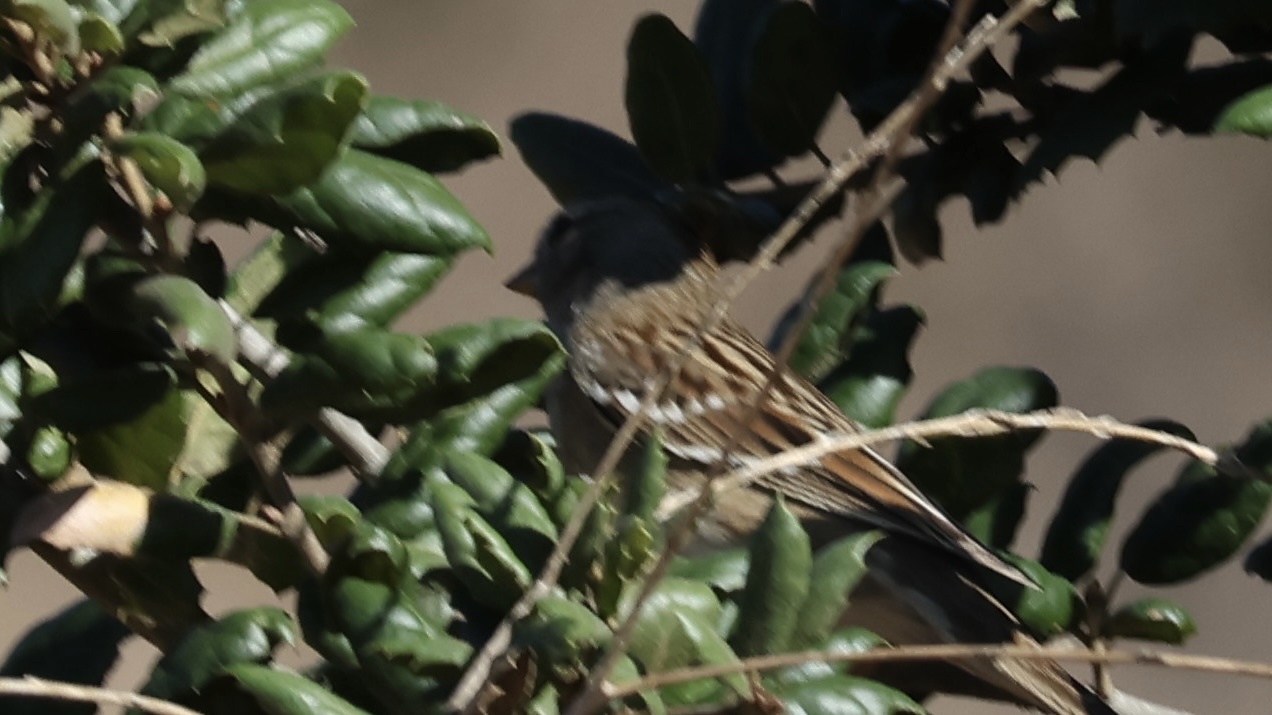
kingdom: Animalia
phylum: Chordata
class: Aves
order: Passeriformes
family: Passerellidae
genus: Zonotrichia
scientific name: Zonotrichia leucophrys
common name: White-crowned sparrow
